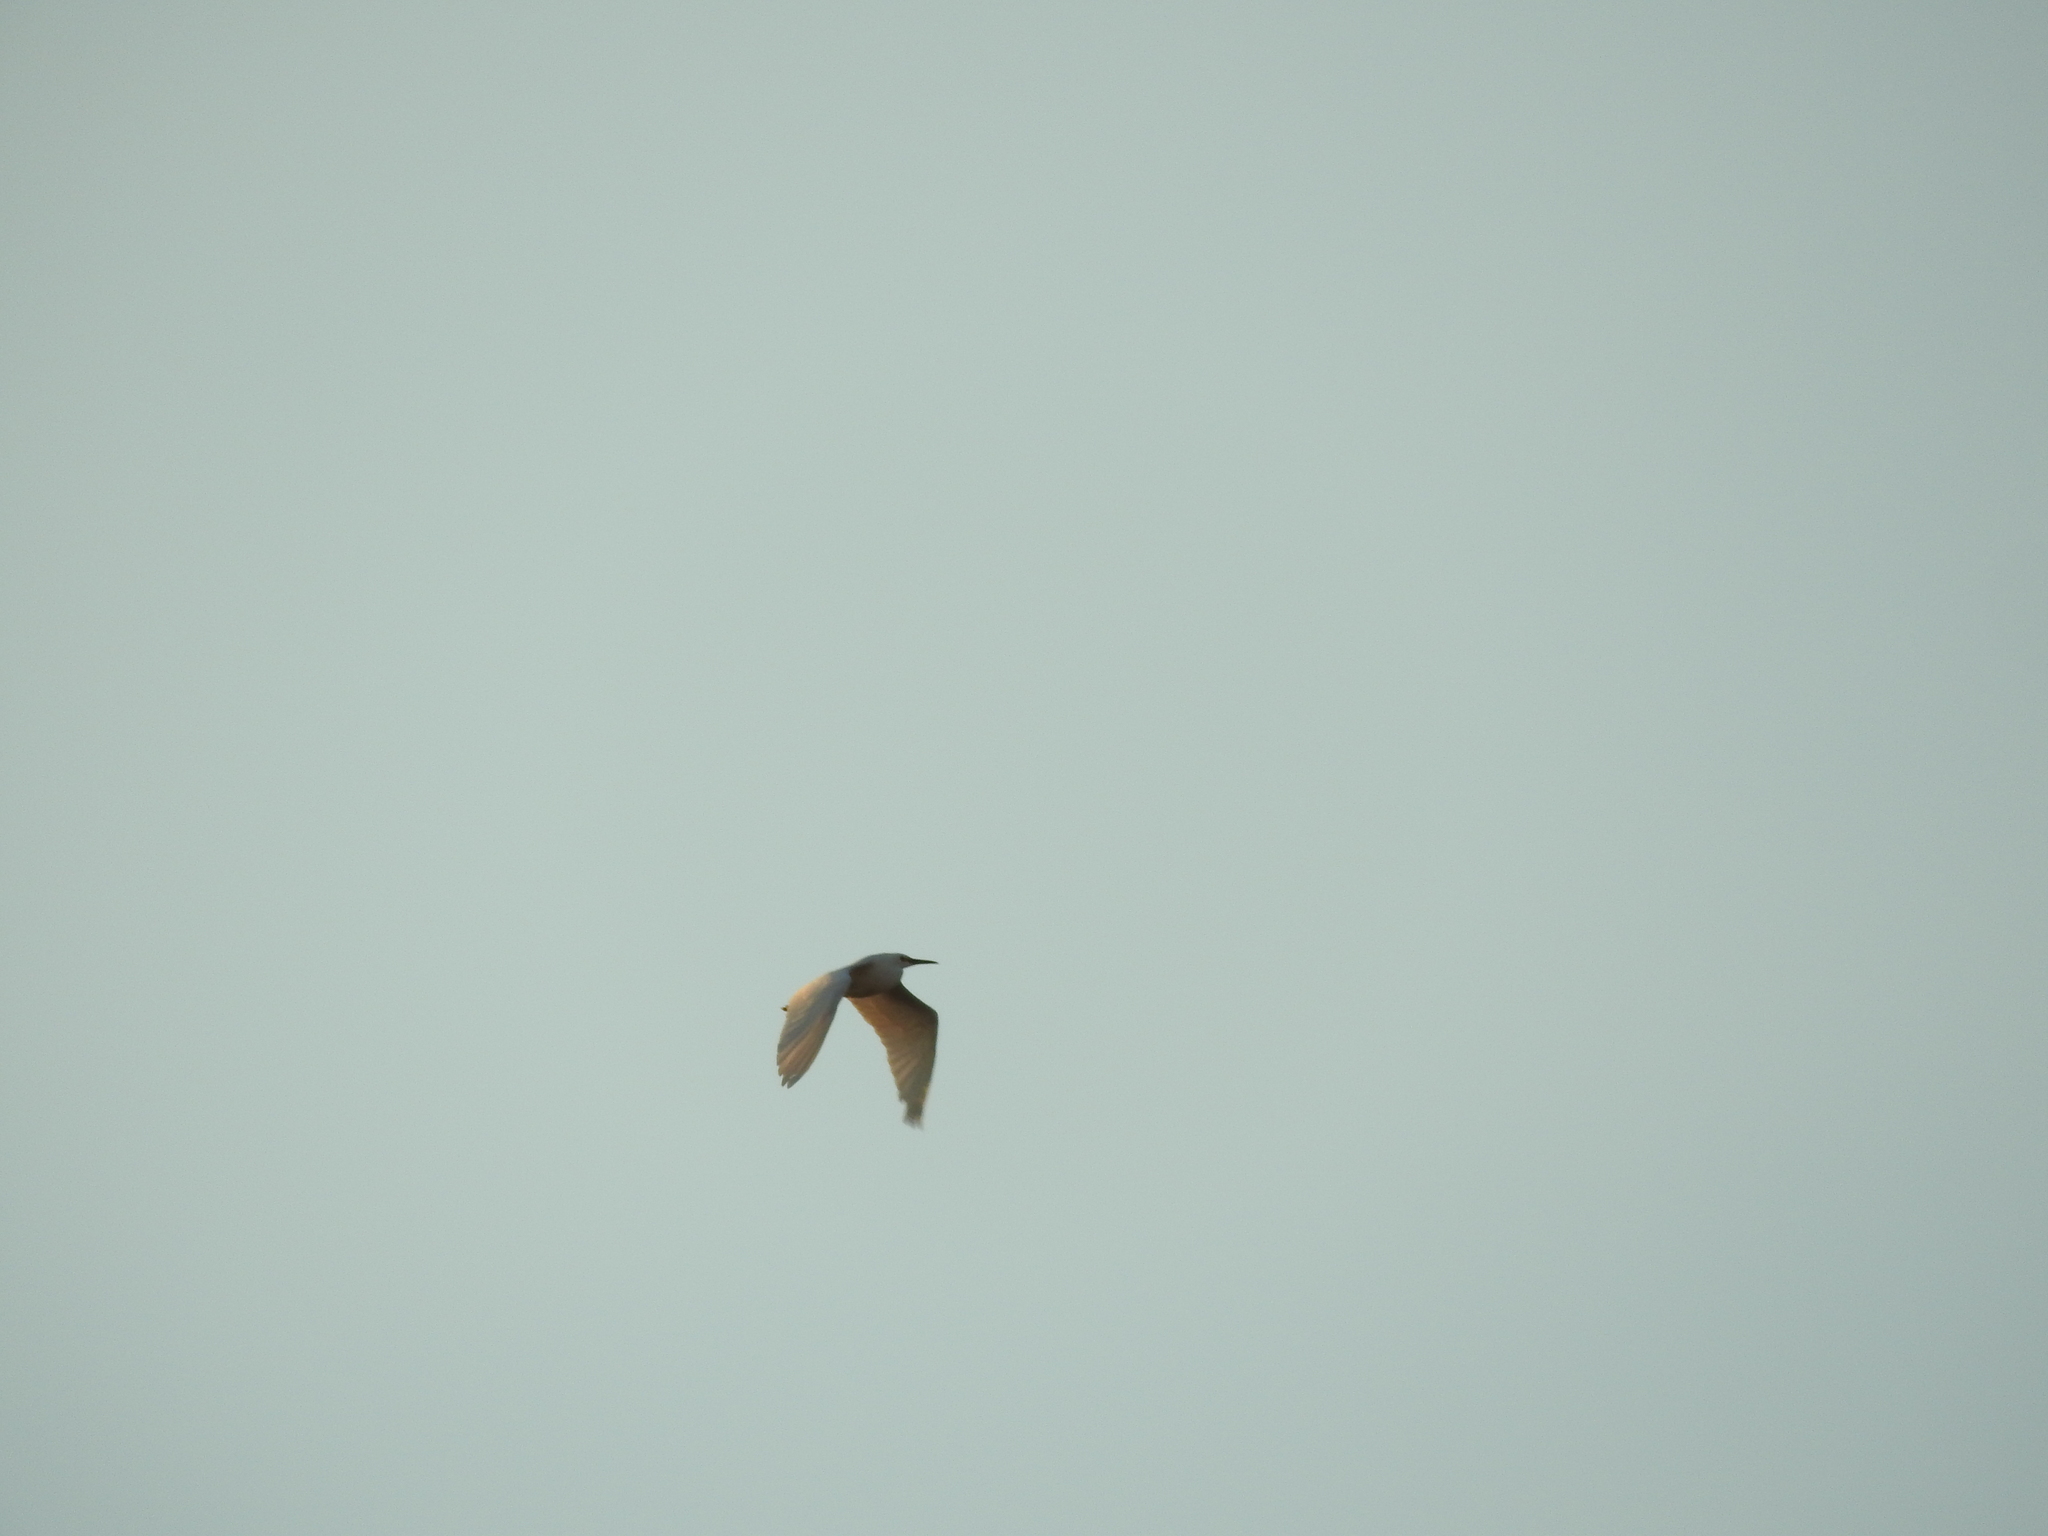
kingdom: Animalia
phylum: Chordata
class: Aves
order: Pelecaniformes
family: Ardeidae
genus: Egretta
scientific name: Egretta thula
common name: Snowy egret
